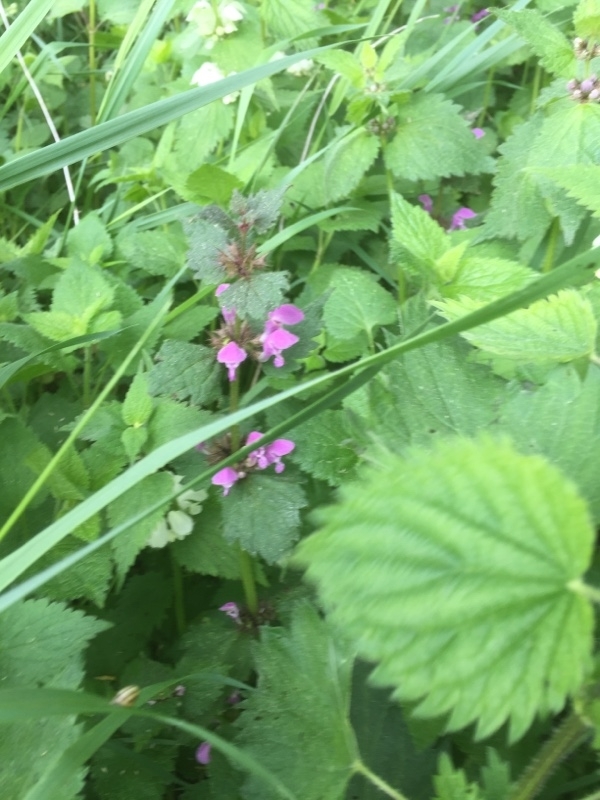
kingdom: Plantae
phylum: Tracheophyta
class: Magnoliopsida
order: Lamiales
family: Lamiaceae
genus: Lamium
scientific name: Lamium maculatum
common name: Spotted dead-nettle
